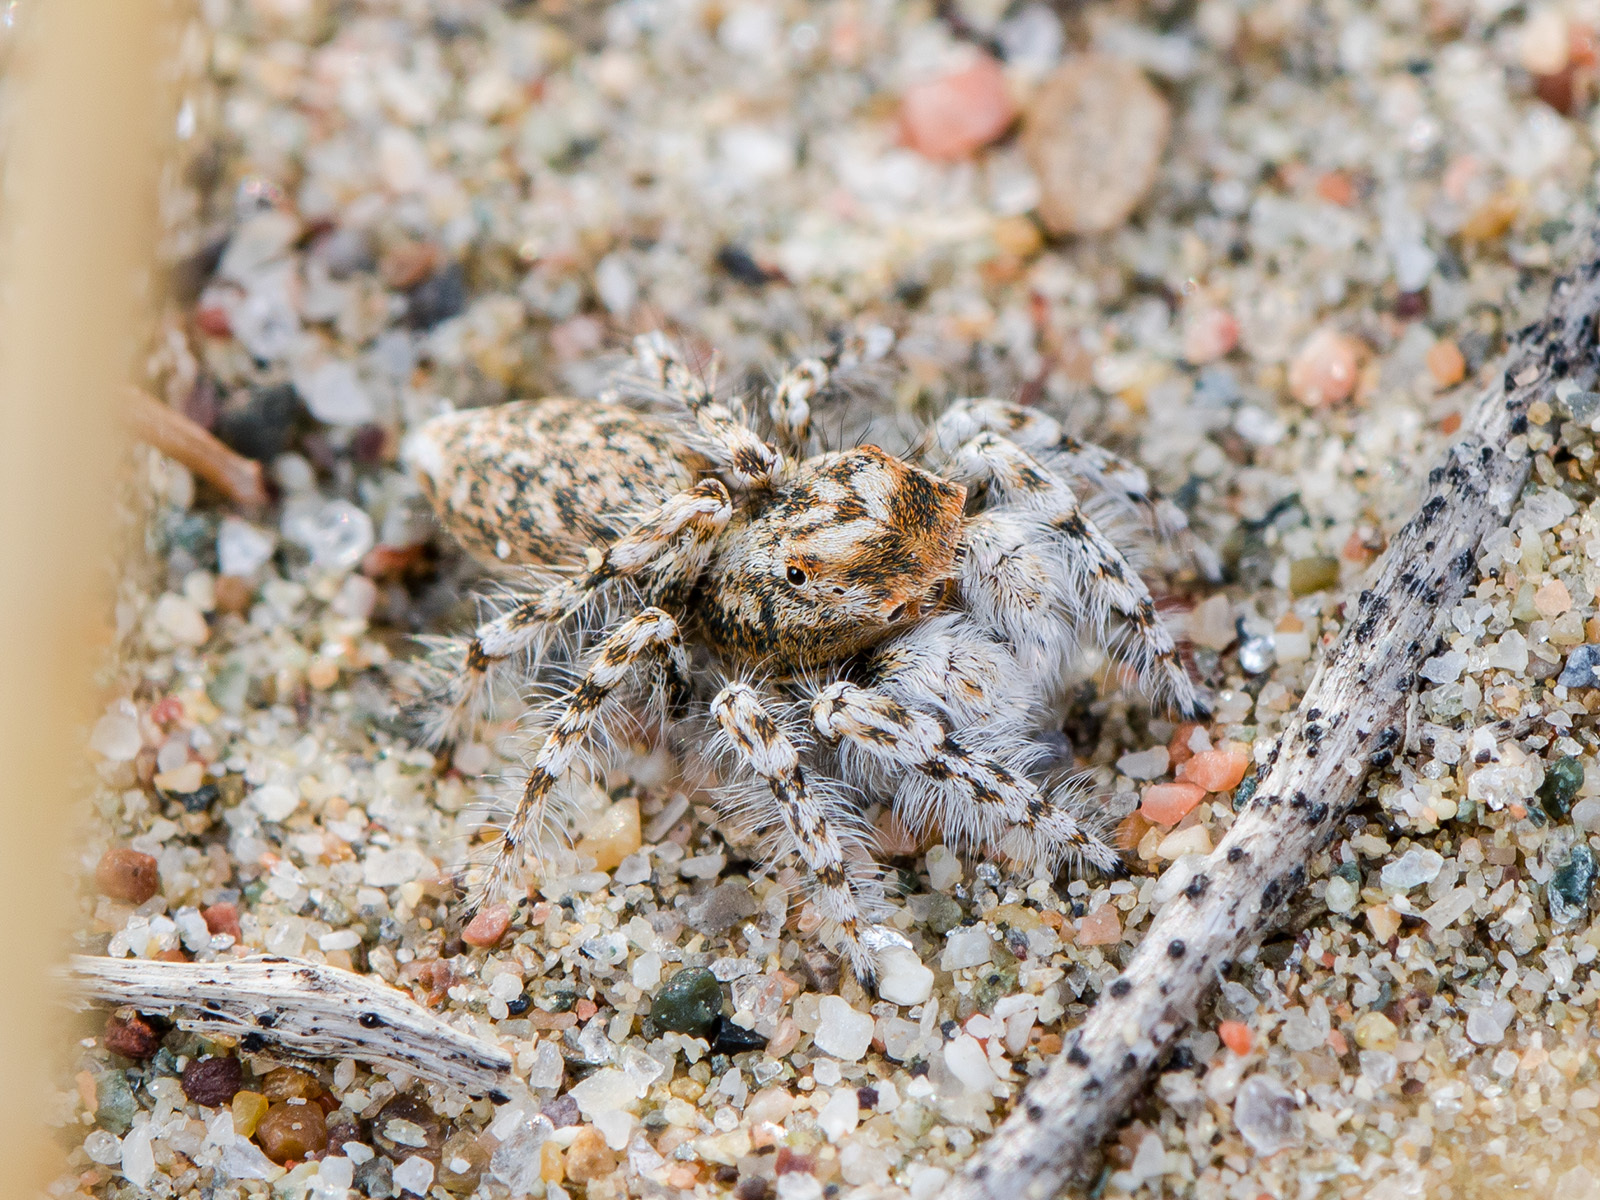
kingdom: Animalia
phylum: Arthropoda
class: Arachnida
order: Araneae
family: Salticidae
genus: Yllenus
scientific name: Yllenus uiguricus
